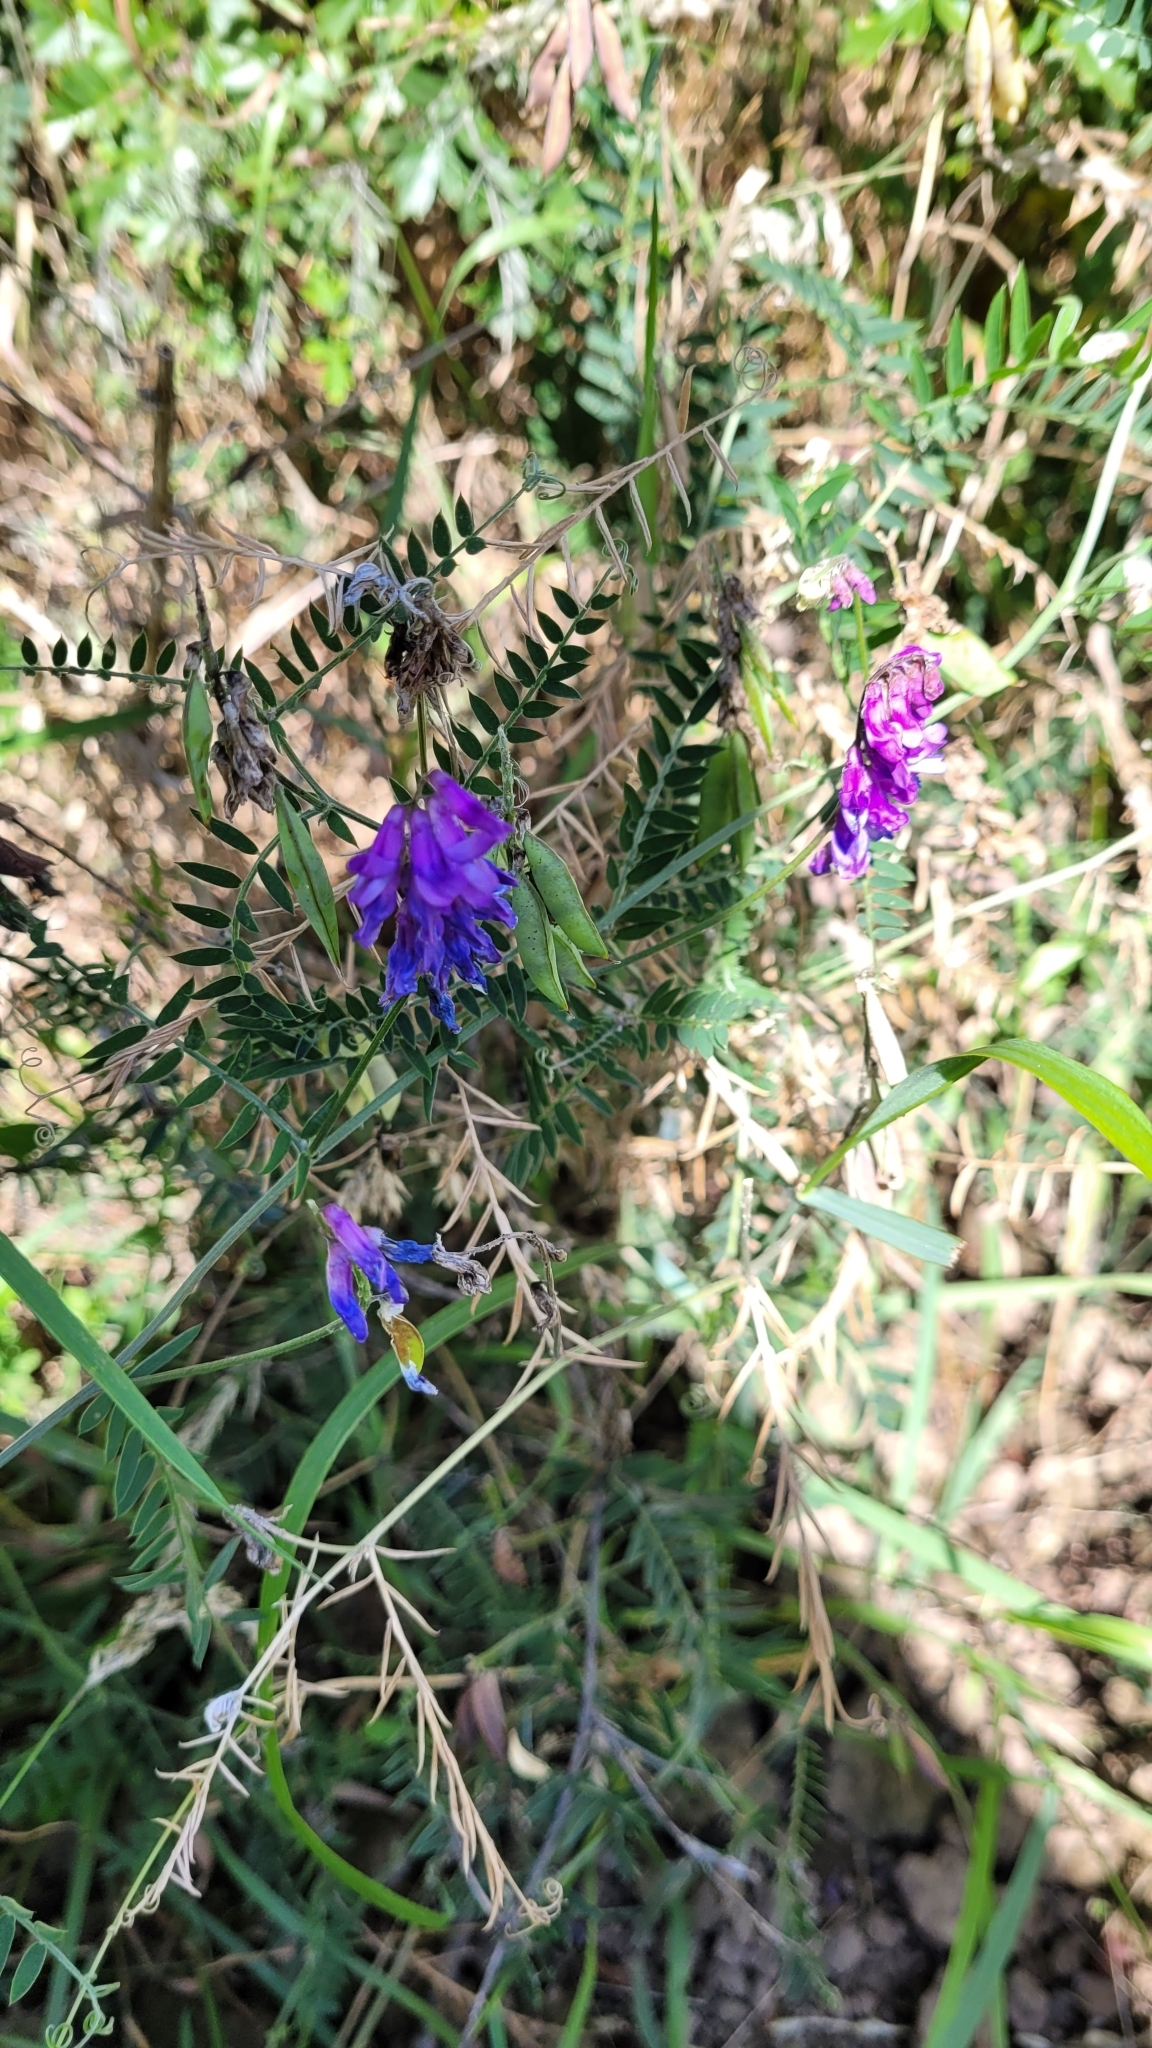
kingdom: Plantae
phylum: Tracheophyta
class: Magnoliopsida
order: Fabales
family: Fabaceae
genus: Vicia
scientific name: Vicia cracca
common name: Bird vetch
